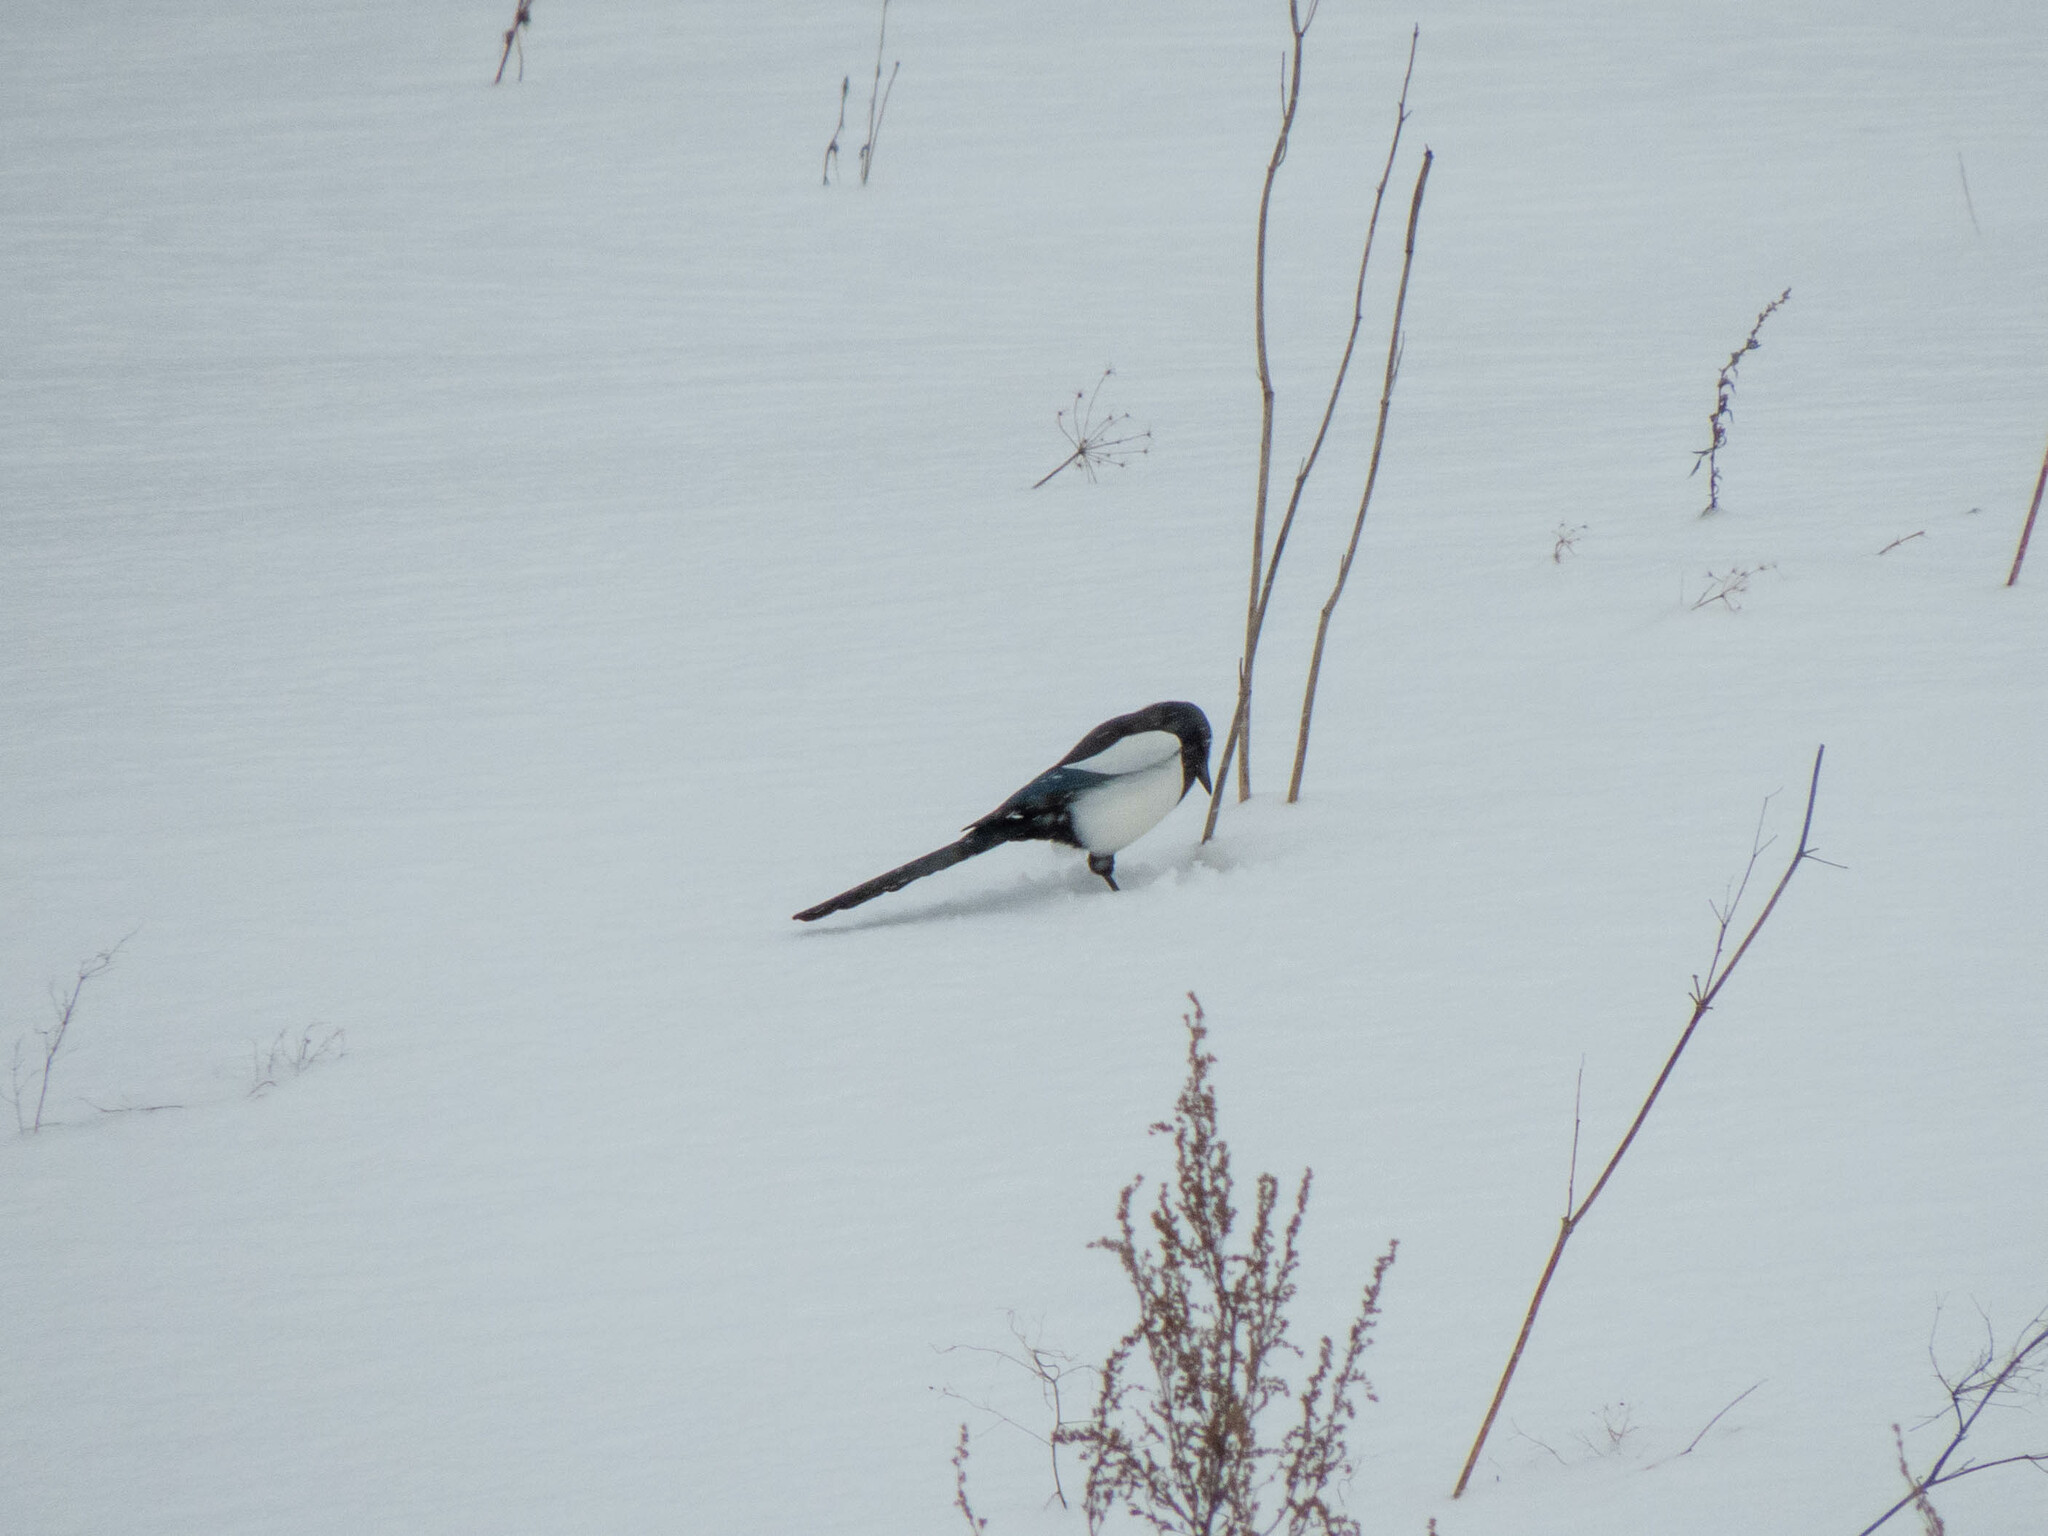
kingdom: Animalia
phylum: Chordata
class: Aves
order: Passeriformes
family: Corvidae
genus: Pica
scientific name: Pica pica
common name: Eurasian magpie
